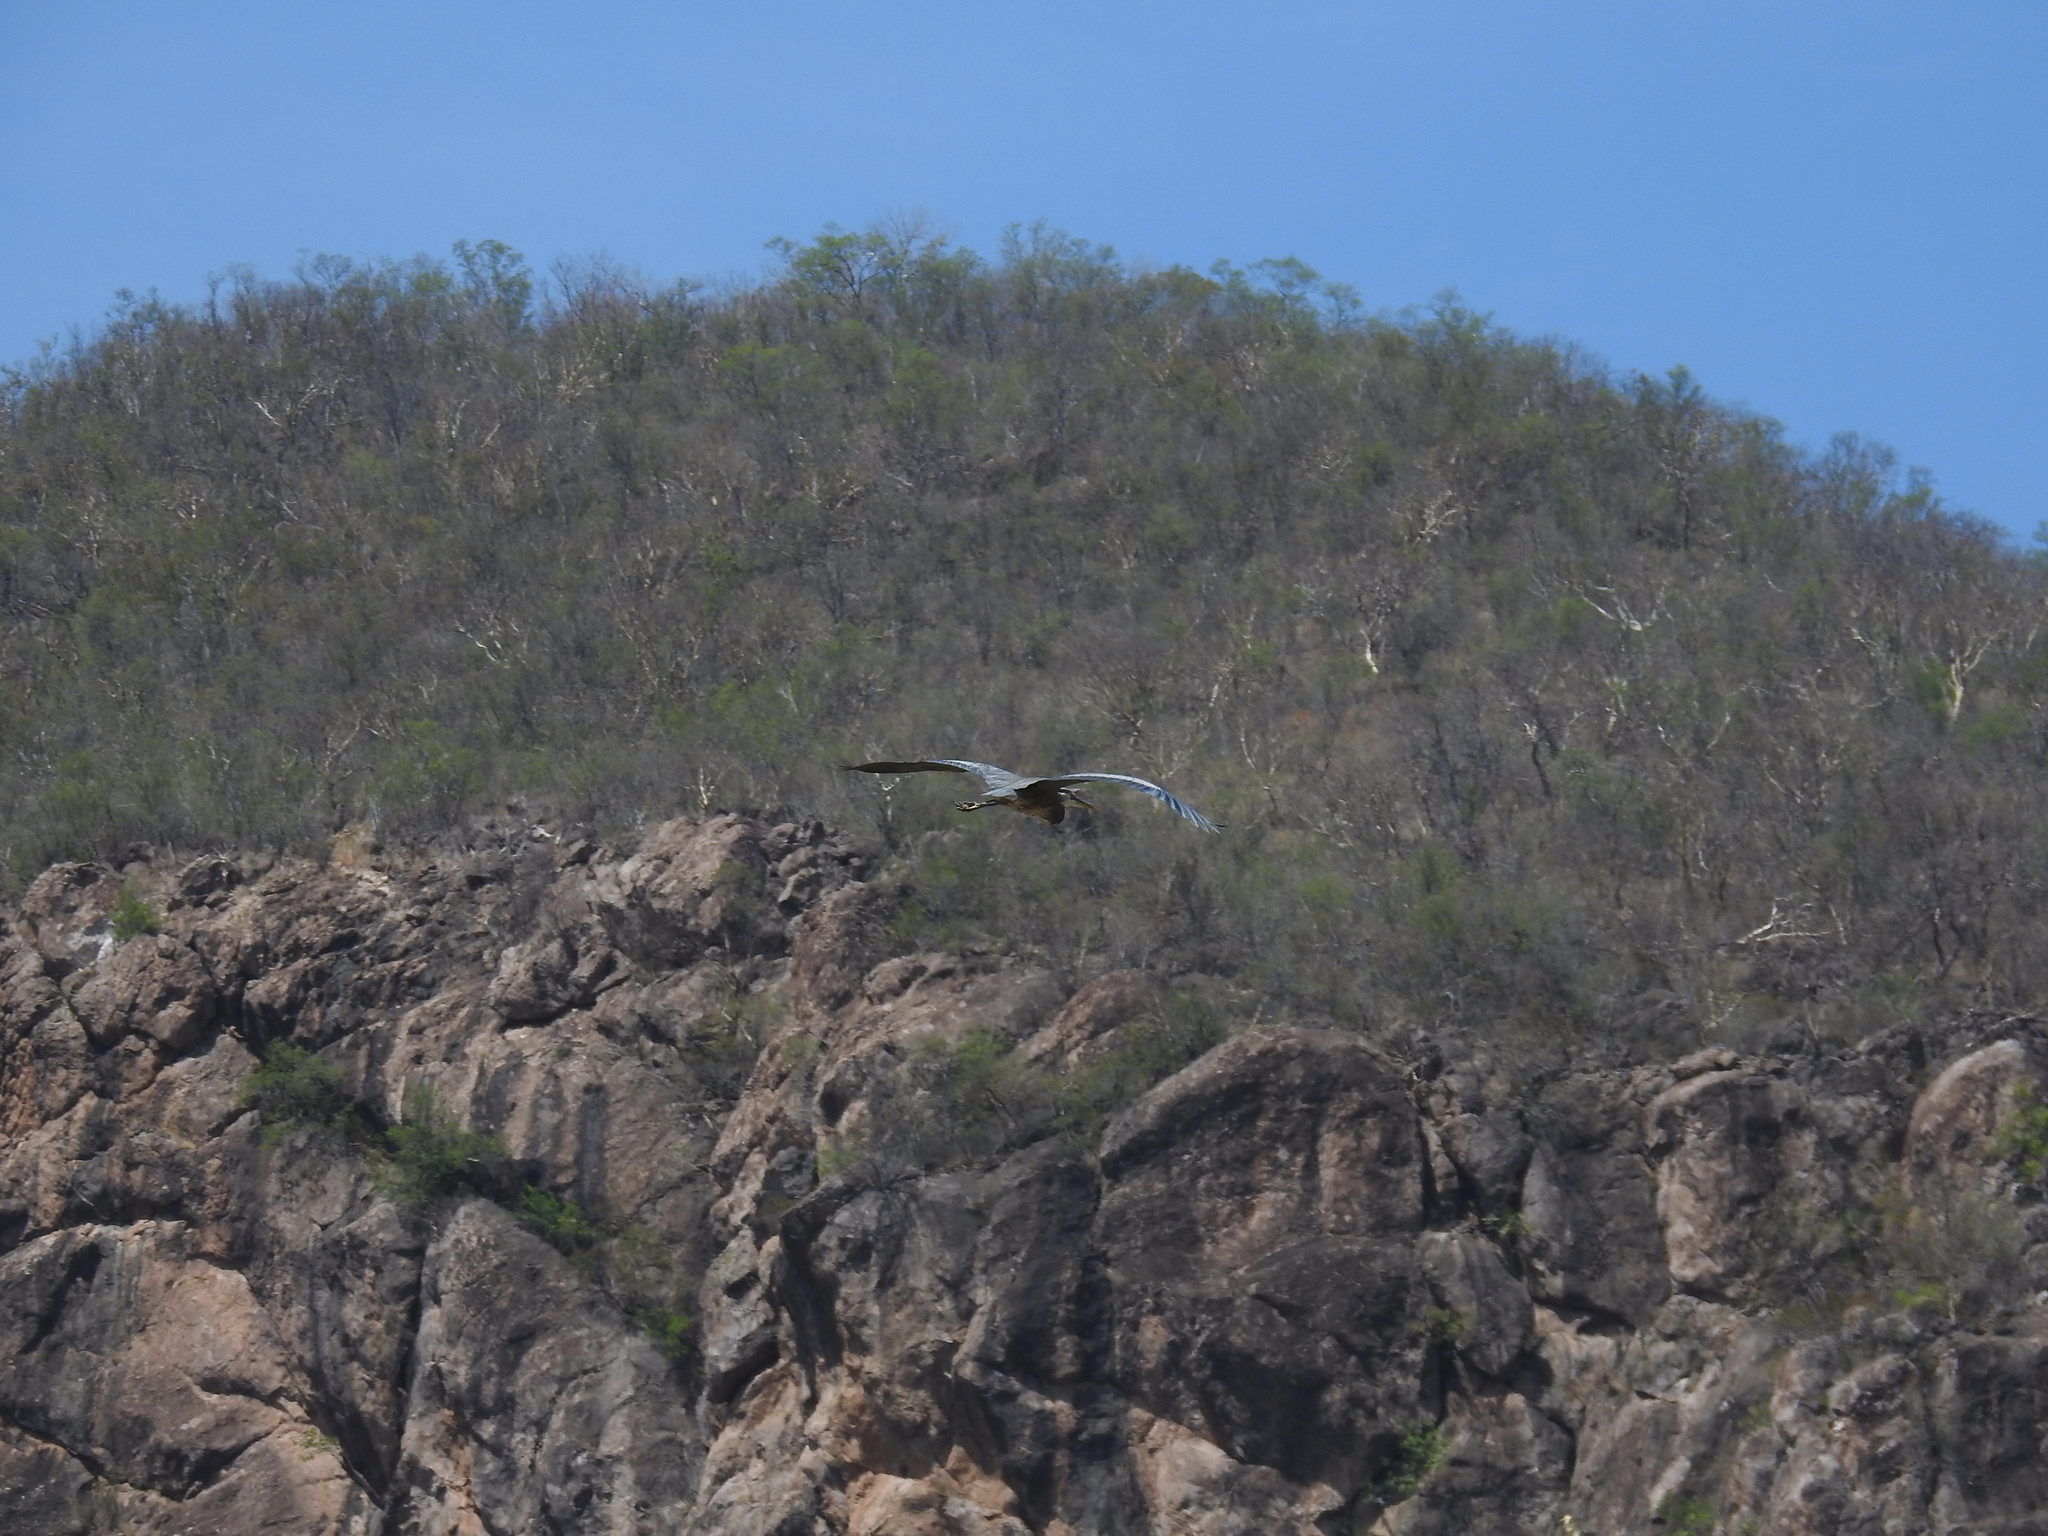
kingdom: Animalia
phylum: Chordata
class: Aves
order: Pelecaniformes
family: Ardeidae
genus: Ardea
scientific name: Ardea herodias
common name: Great blue heron
